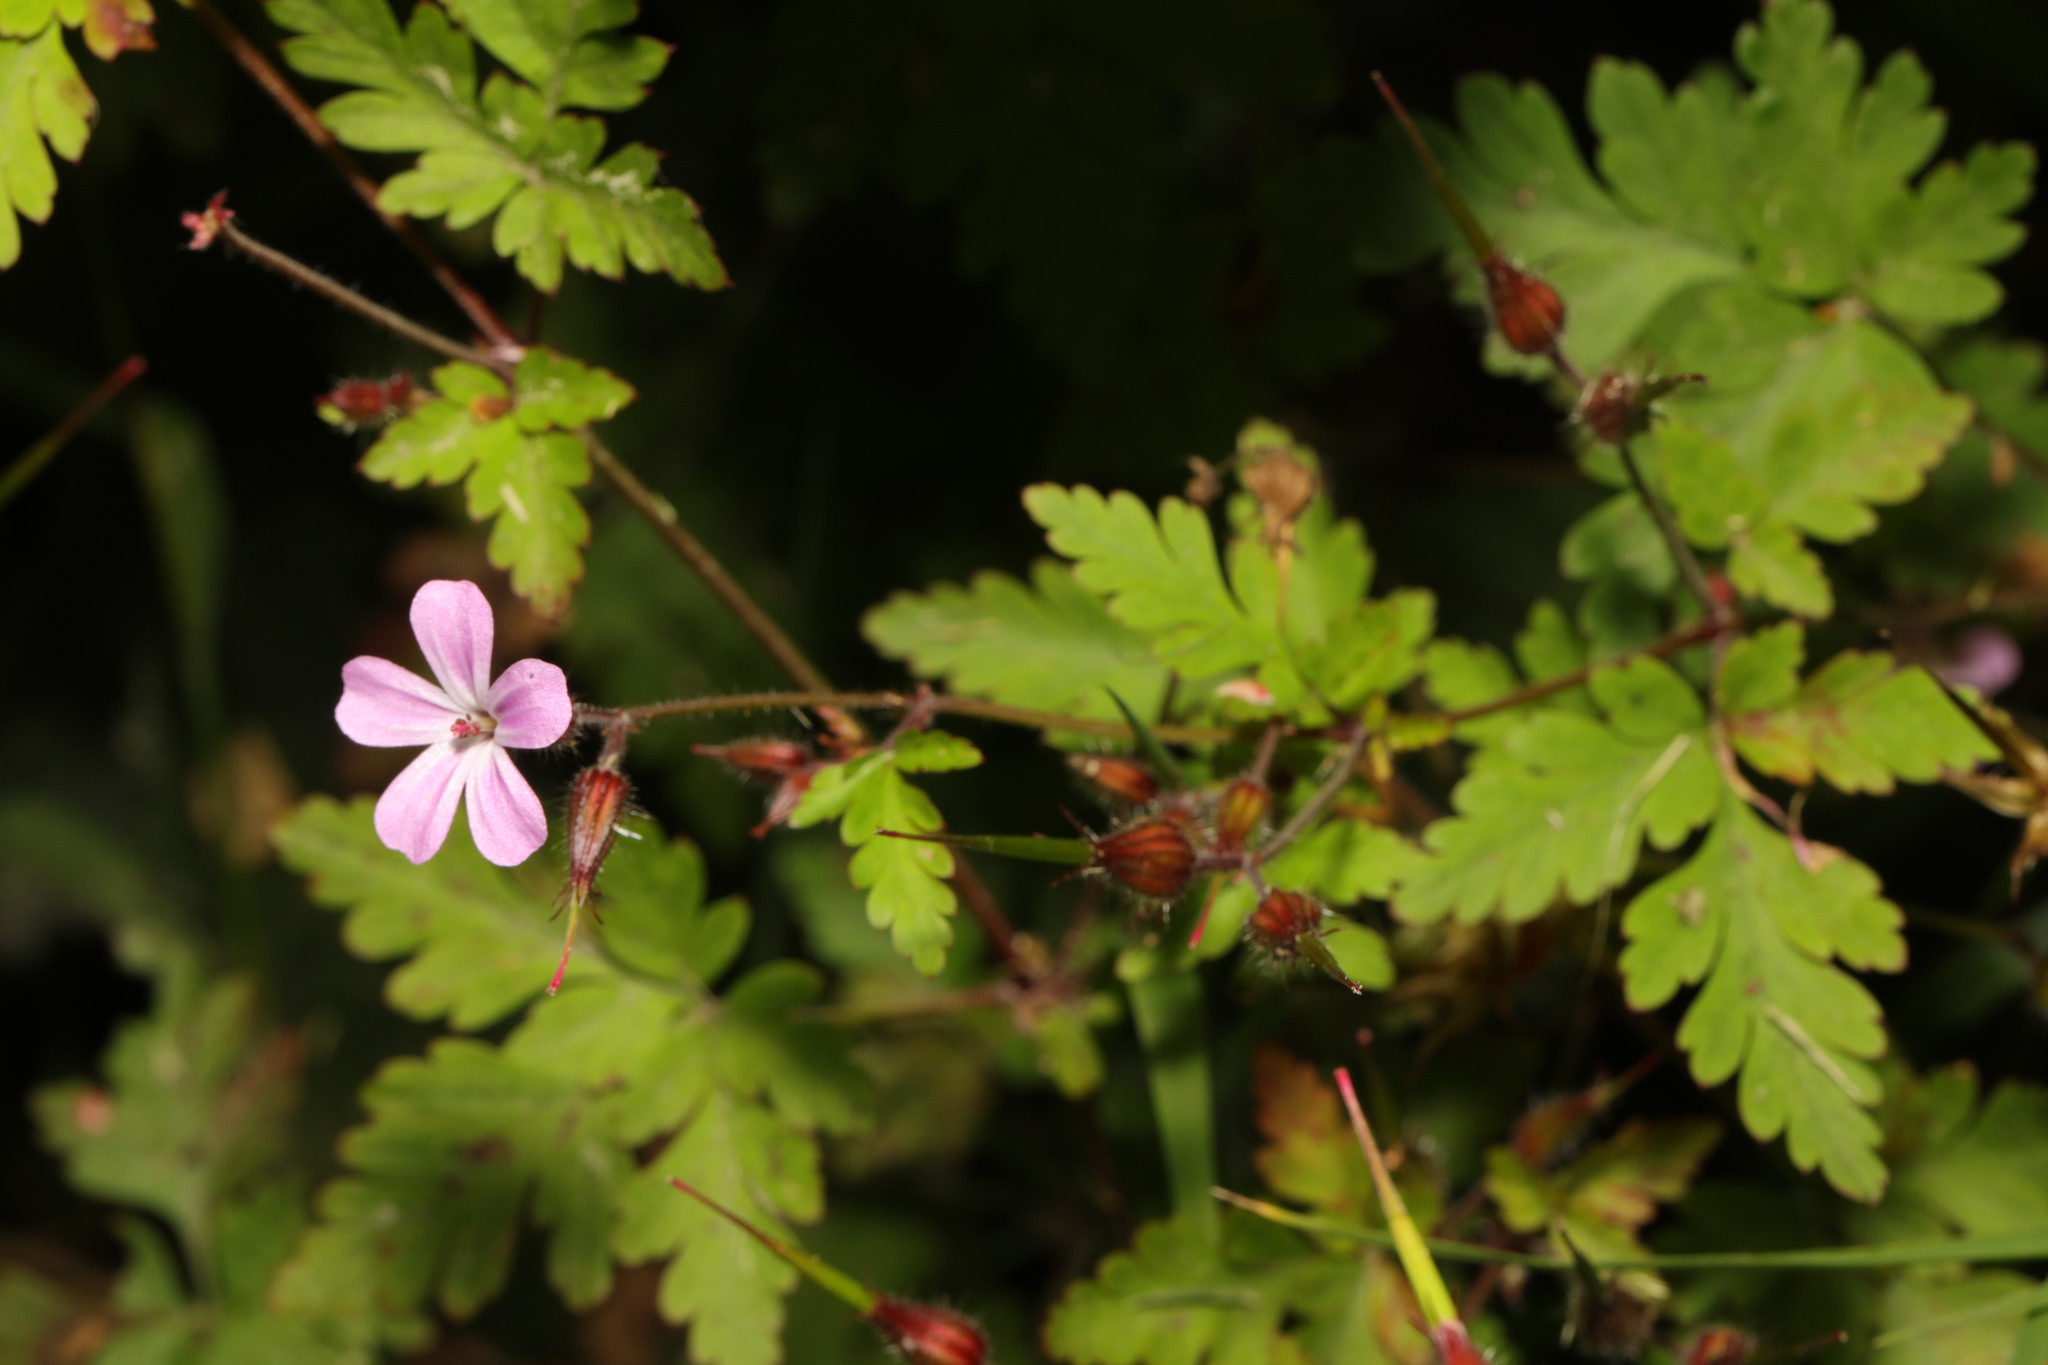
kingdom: Plantae
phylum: Tracheophyta
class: Magnoliopsida
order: Geraniales
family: Geraniaceae
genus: Geranium
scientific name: Geranium robertianum
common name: Herb-robert
